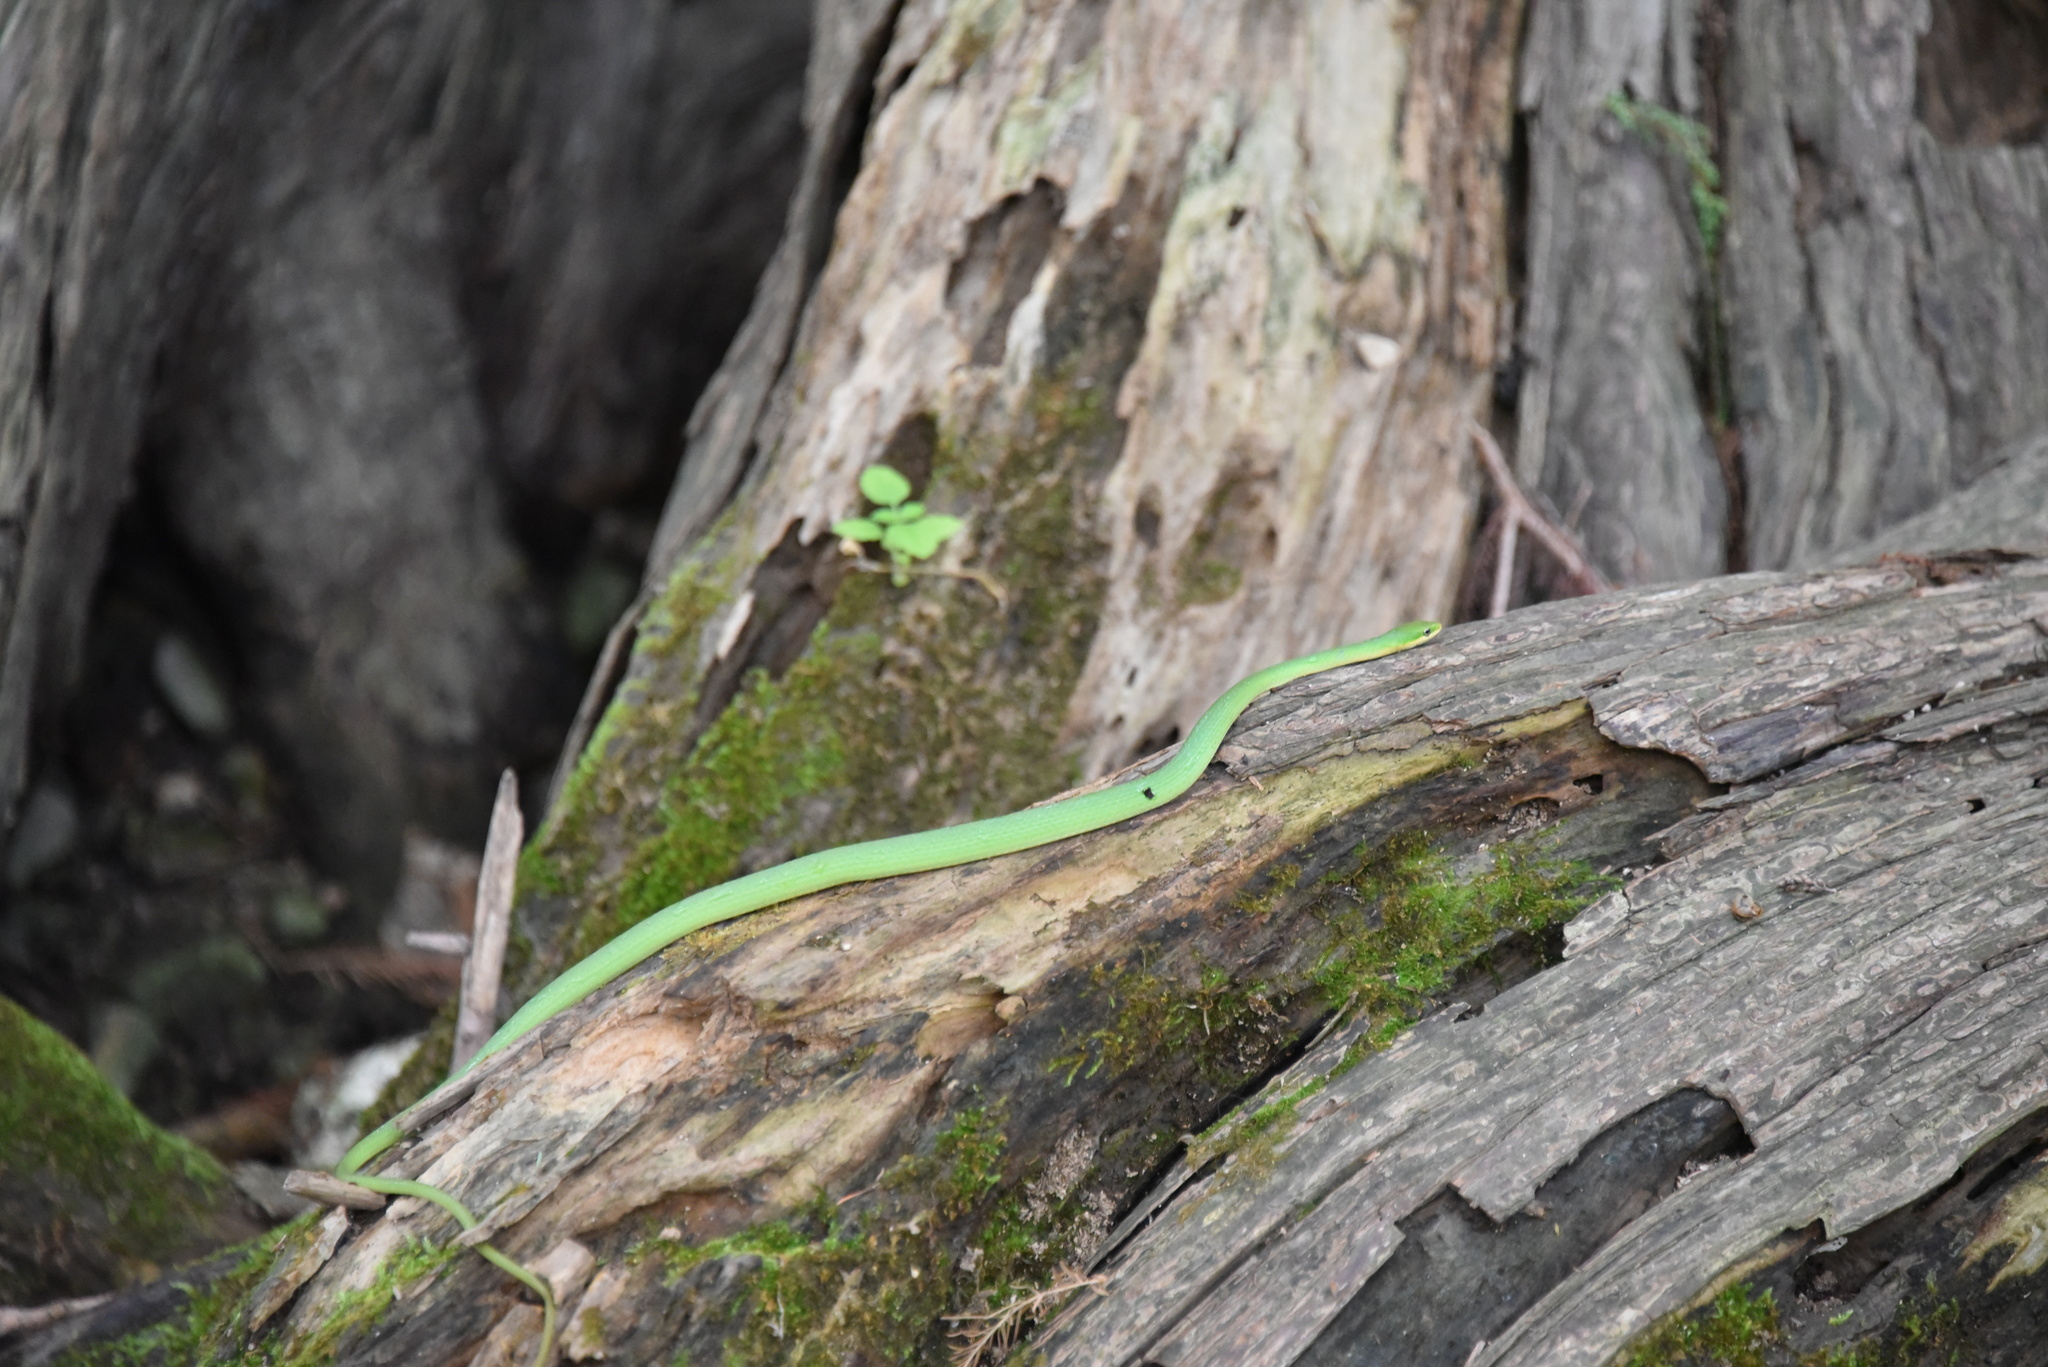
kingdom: Animalia
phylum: Chordata
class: Squamata
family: Colubridae
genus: Opheodrys
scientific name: Opheodrys aestivus
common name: Rough greensnake
